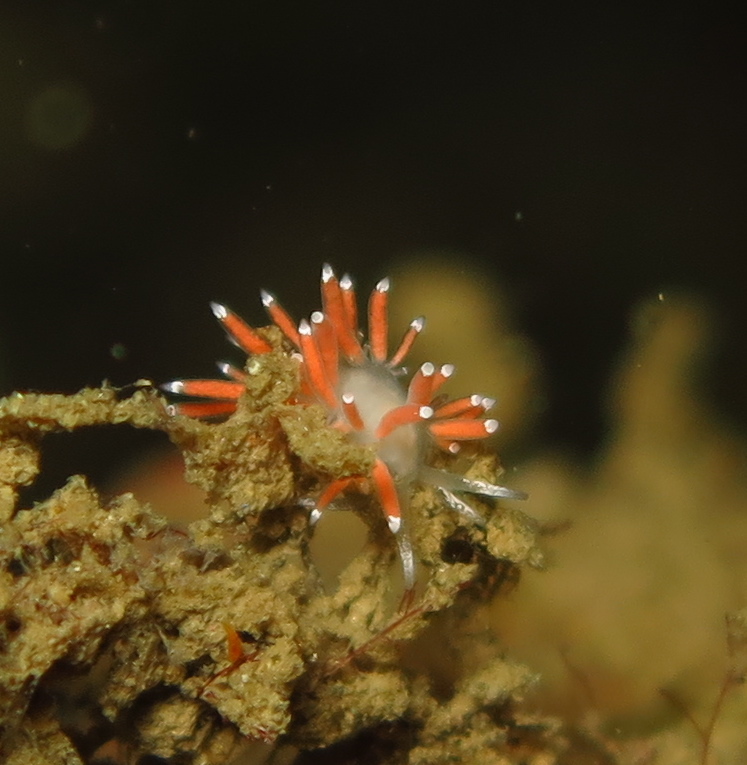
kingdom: Animalia
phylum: Mollusca
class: Gastropoda
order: Nudibranchia
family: Coryphellidae
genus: Coryphella
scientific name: Coryphella gracilis
